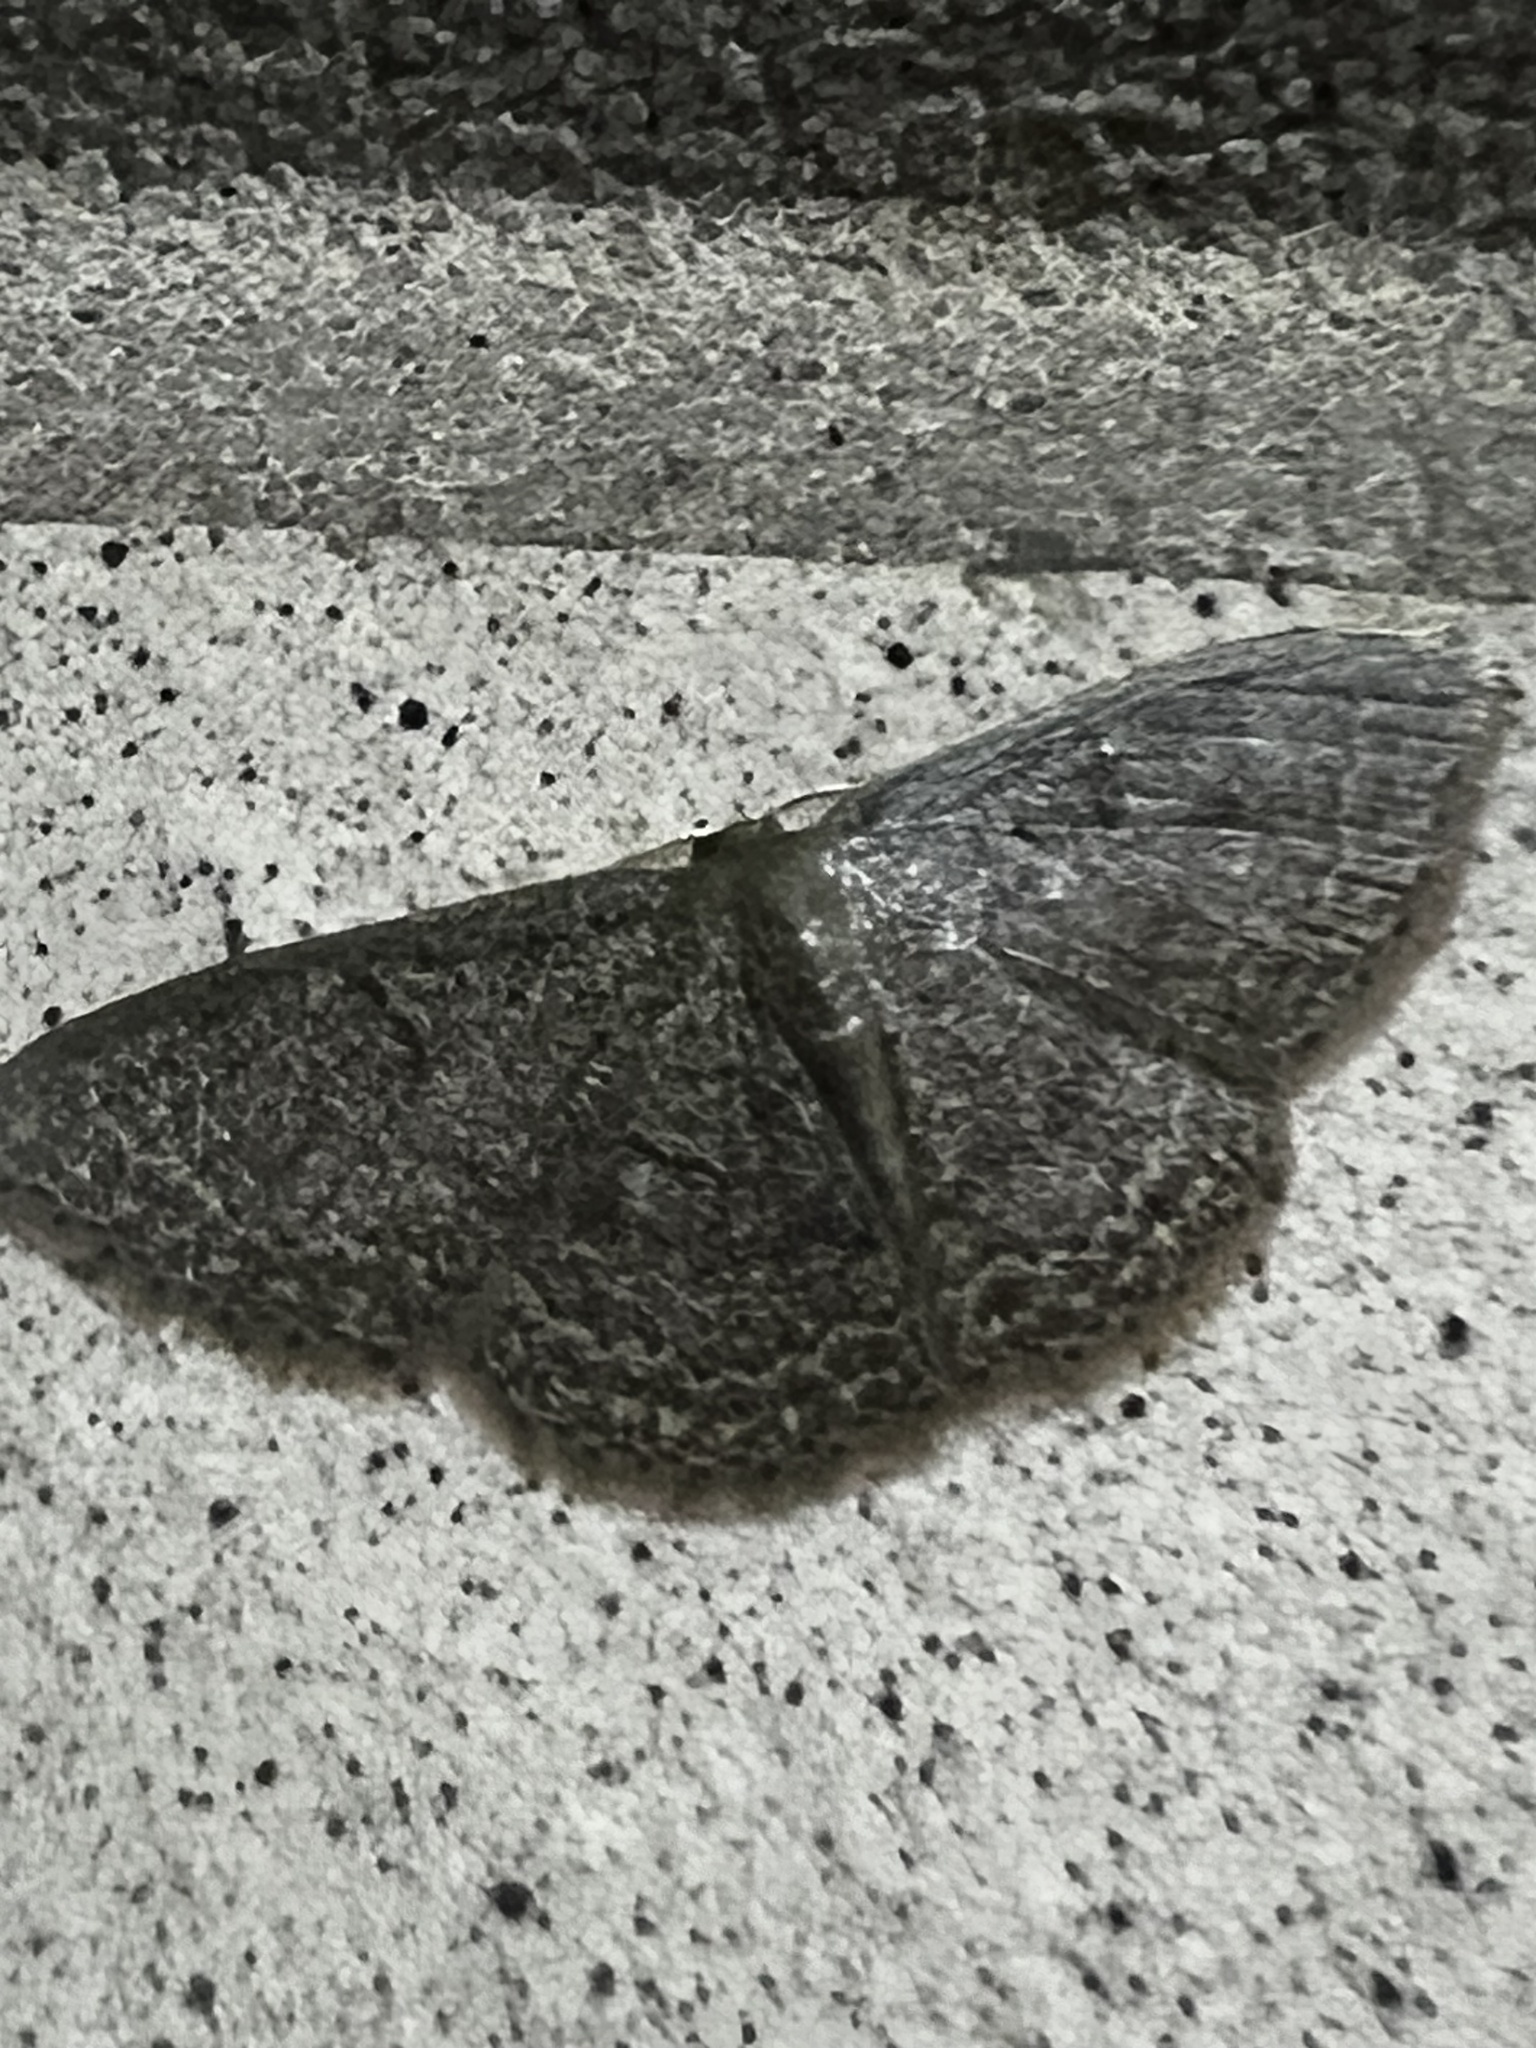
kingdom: Animalia
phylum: Arthropoda
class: Insecta
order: Lepidoptera
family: Geometridae
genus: Pleuroprucha
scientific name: Pleuroprucha insulsaria
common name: Common tan wave
